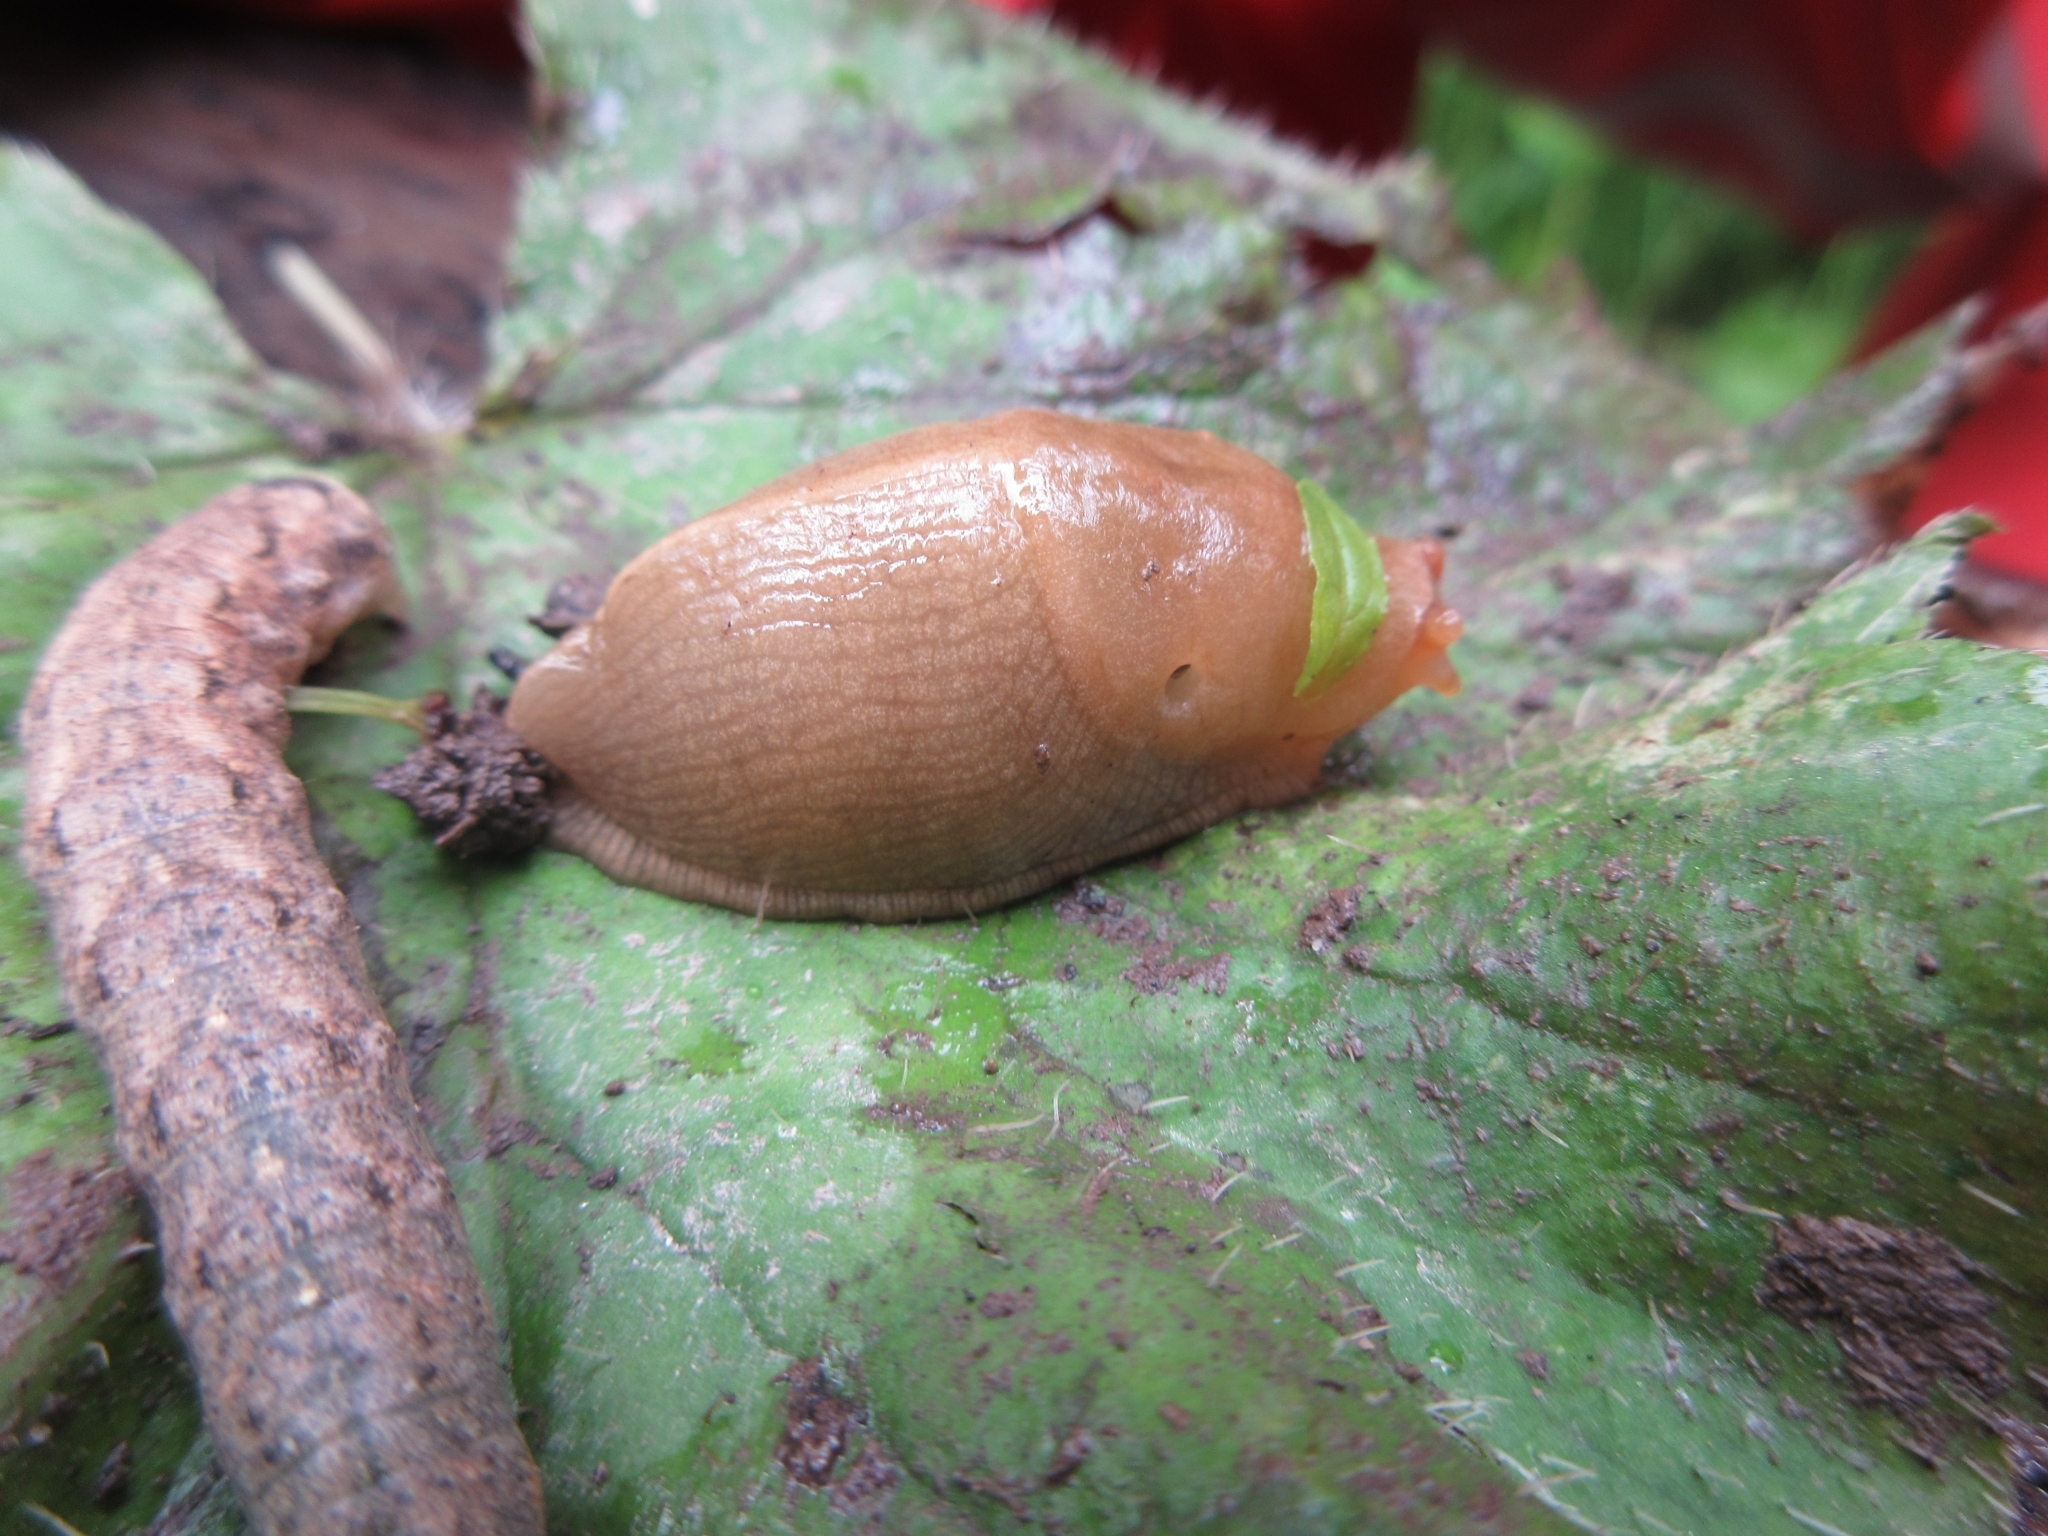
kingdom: Animalia
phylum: Mollusca
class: Gastropoda
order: Stylommatophora
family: Ariolimacidae
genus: Ariolimax
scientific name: Ariolimax columbianus
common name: Pacific banana slug
